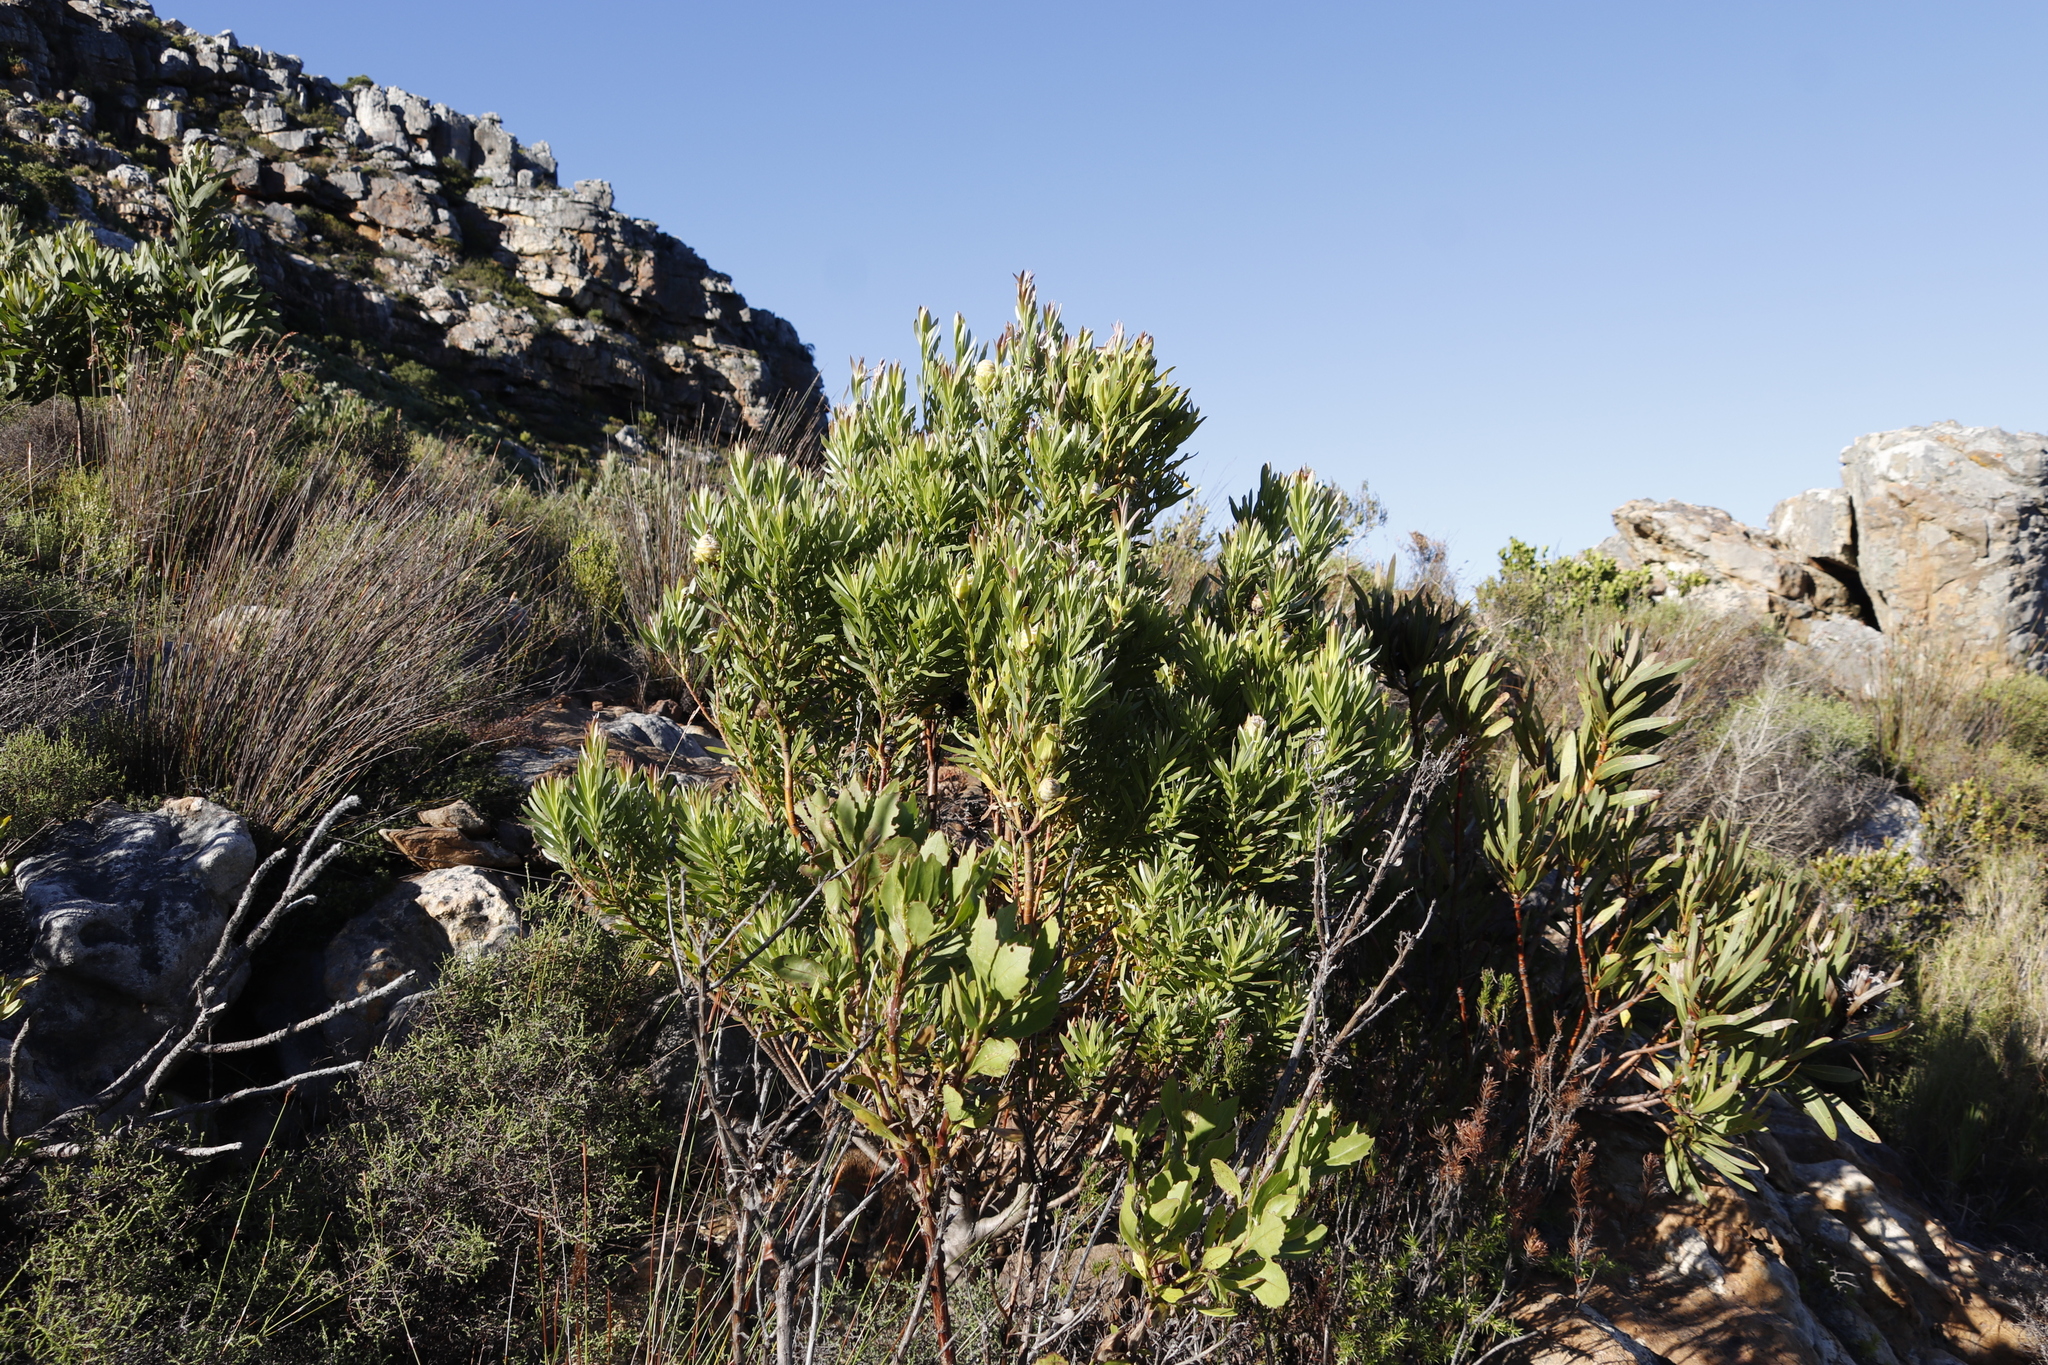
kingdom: Plantae
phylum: Tracheophyta
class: Magnoliopsida
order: Proteales
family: Proteaceae
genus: Leucadendron
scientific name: Leucadendron xanthoconus
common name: Sickle-leaf conebush
